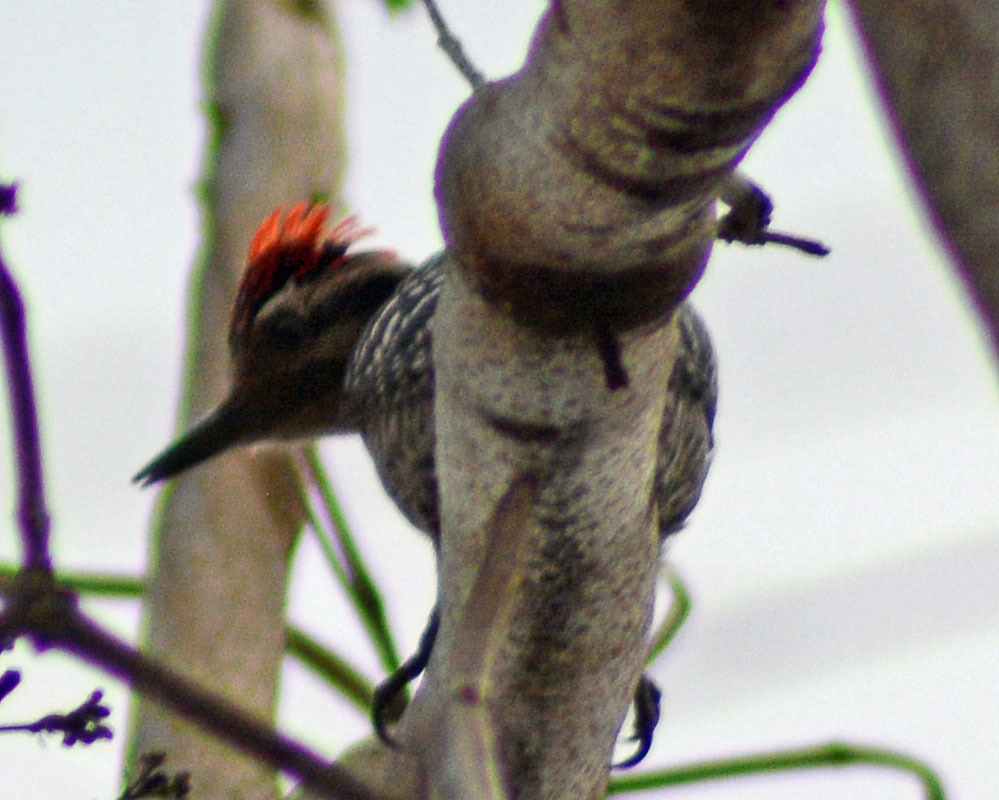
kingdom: Animalia
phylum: Chordata
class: Aves
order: Piciformes
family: Picidae
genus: Dryobates
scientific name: Dryobates scalaris
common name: Ladder-backed woodpecker
